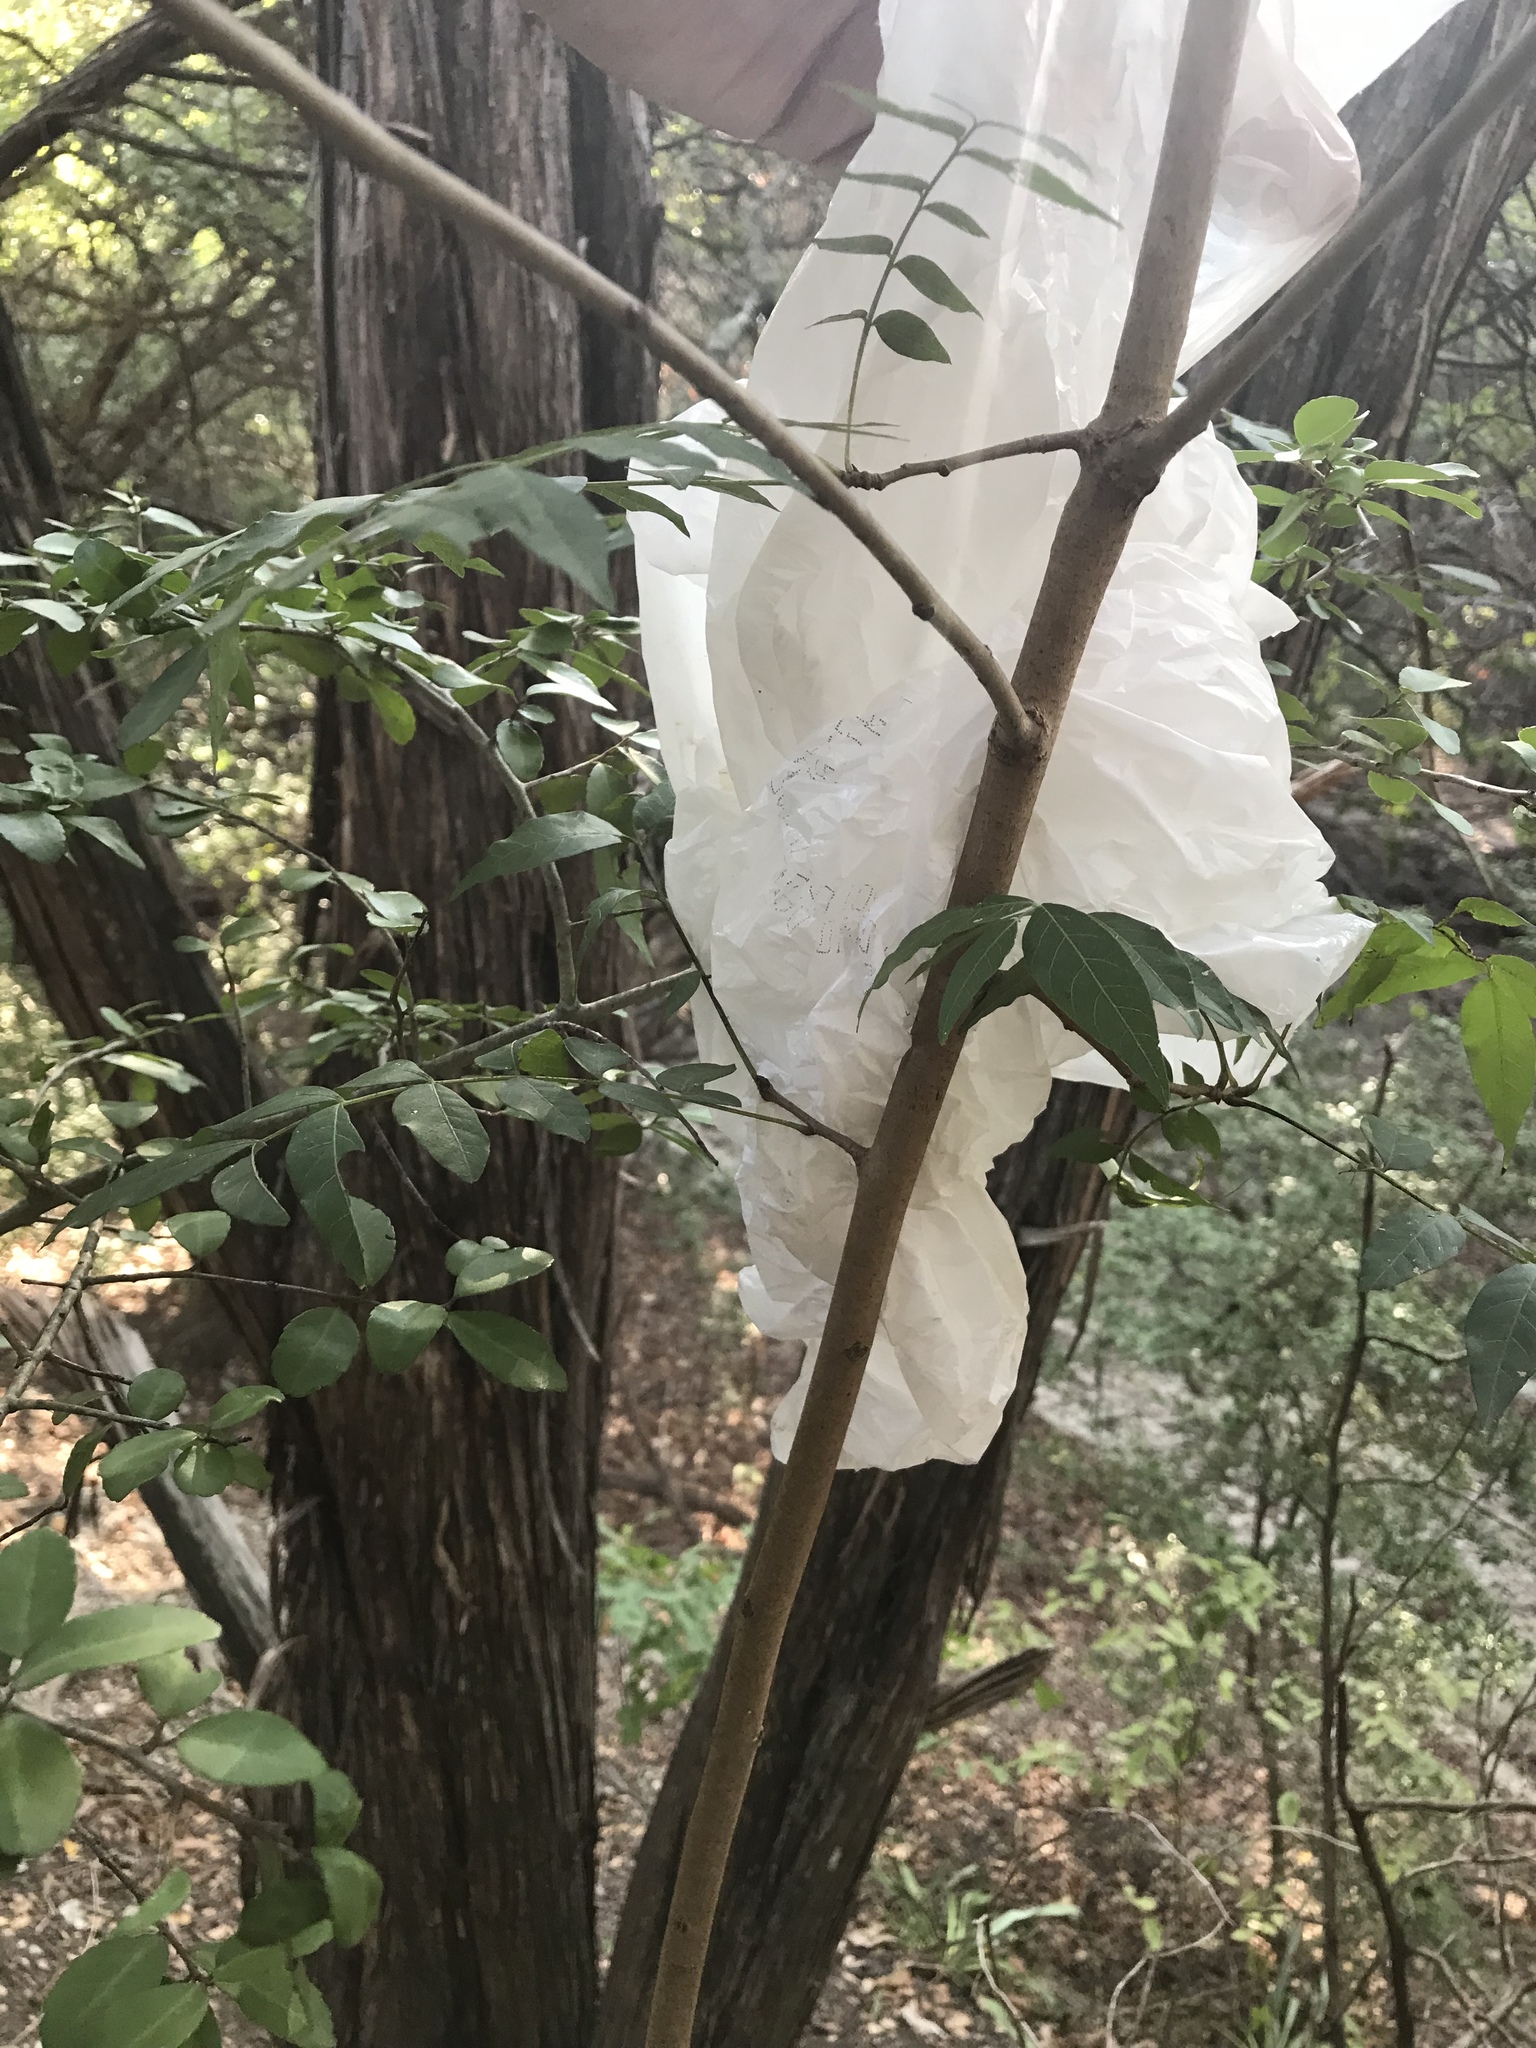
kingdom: Plantae
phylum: Tracheophyta
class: Magnoliopsida
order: Sapindales
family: Anacardiaceae
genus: Pistacia
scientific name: Pistacia chinensis
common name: Chinese pistache
